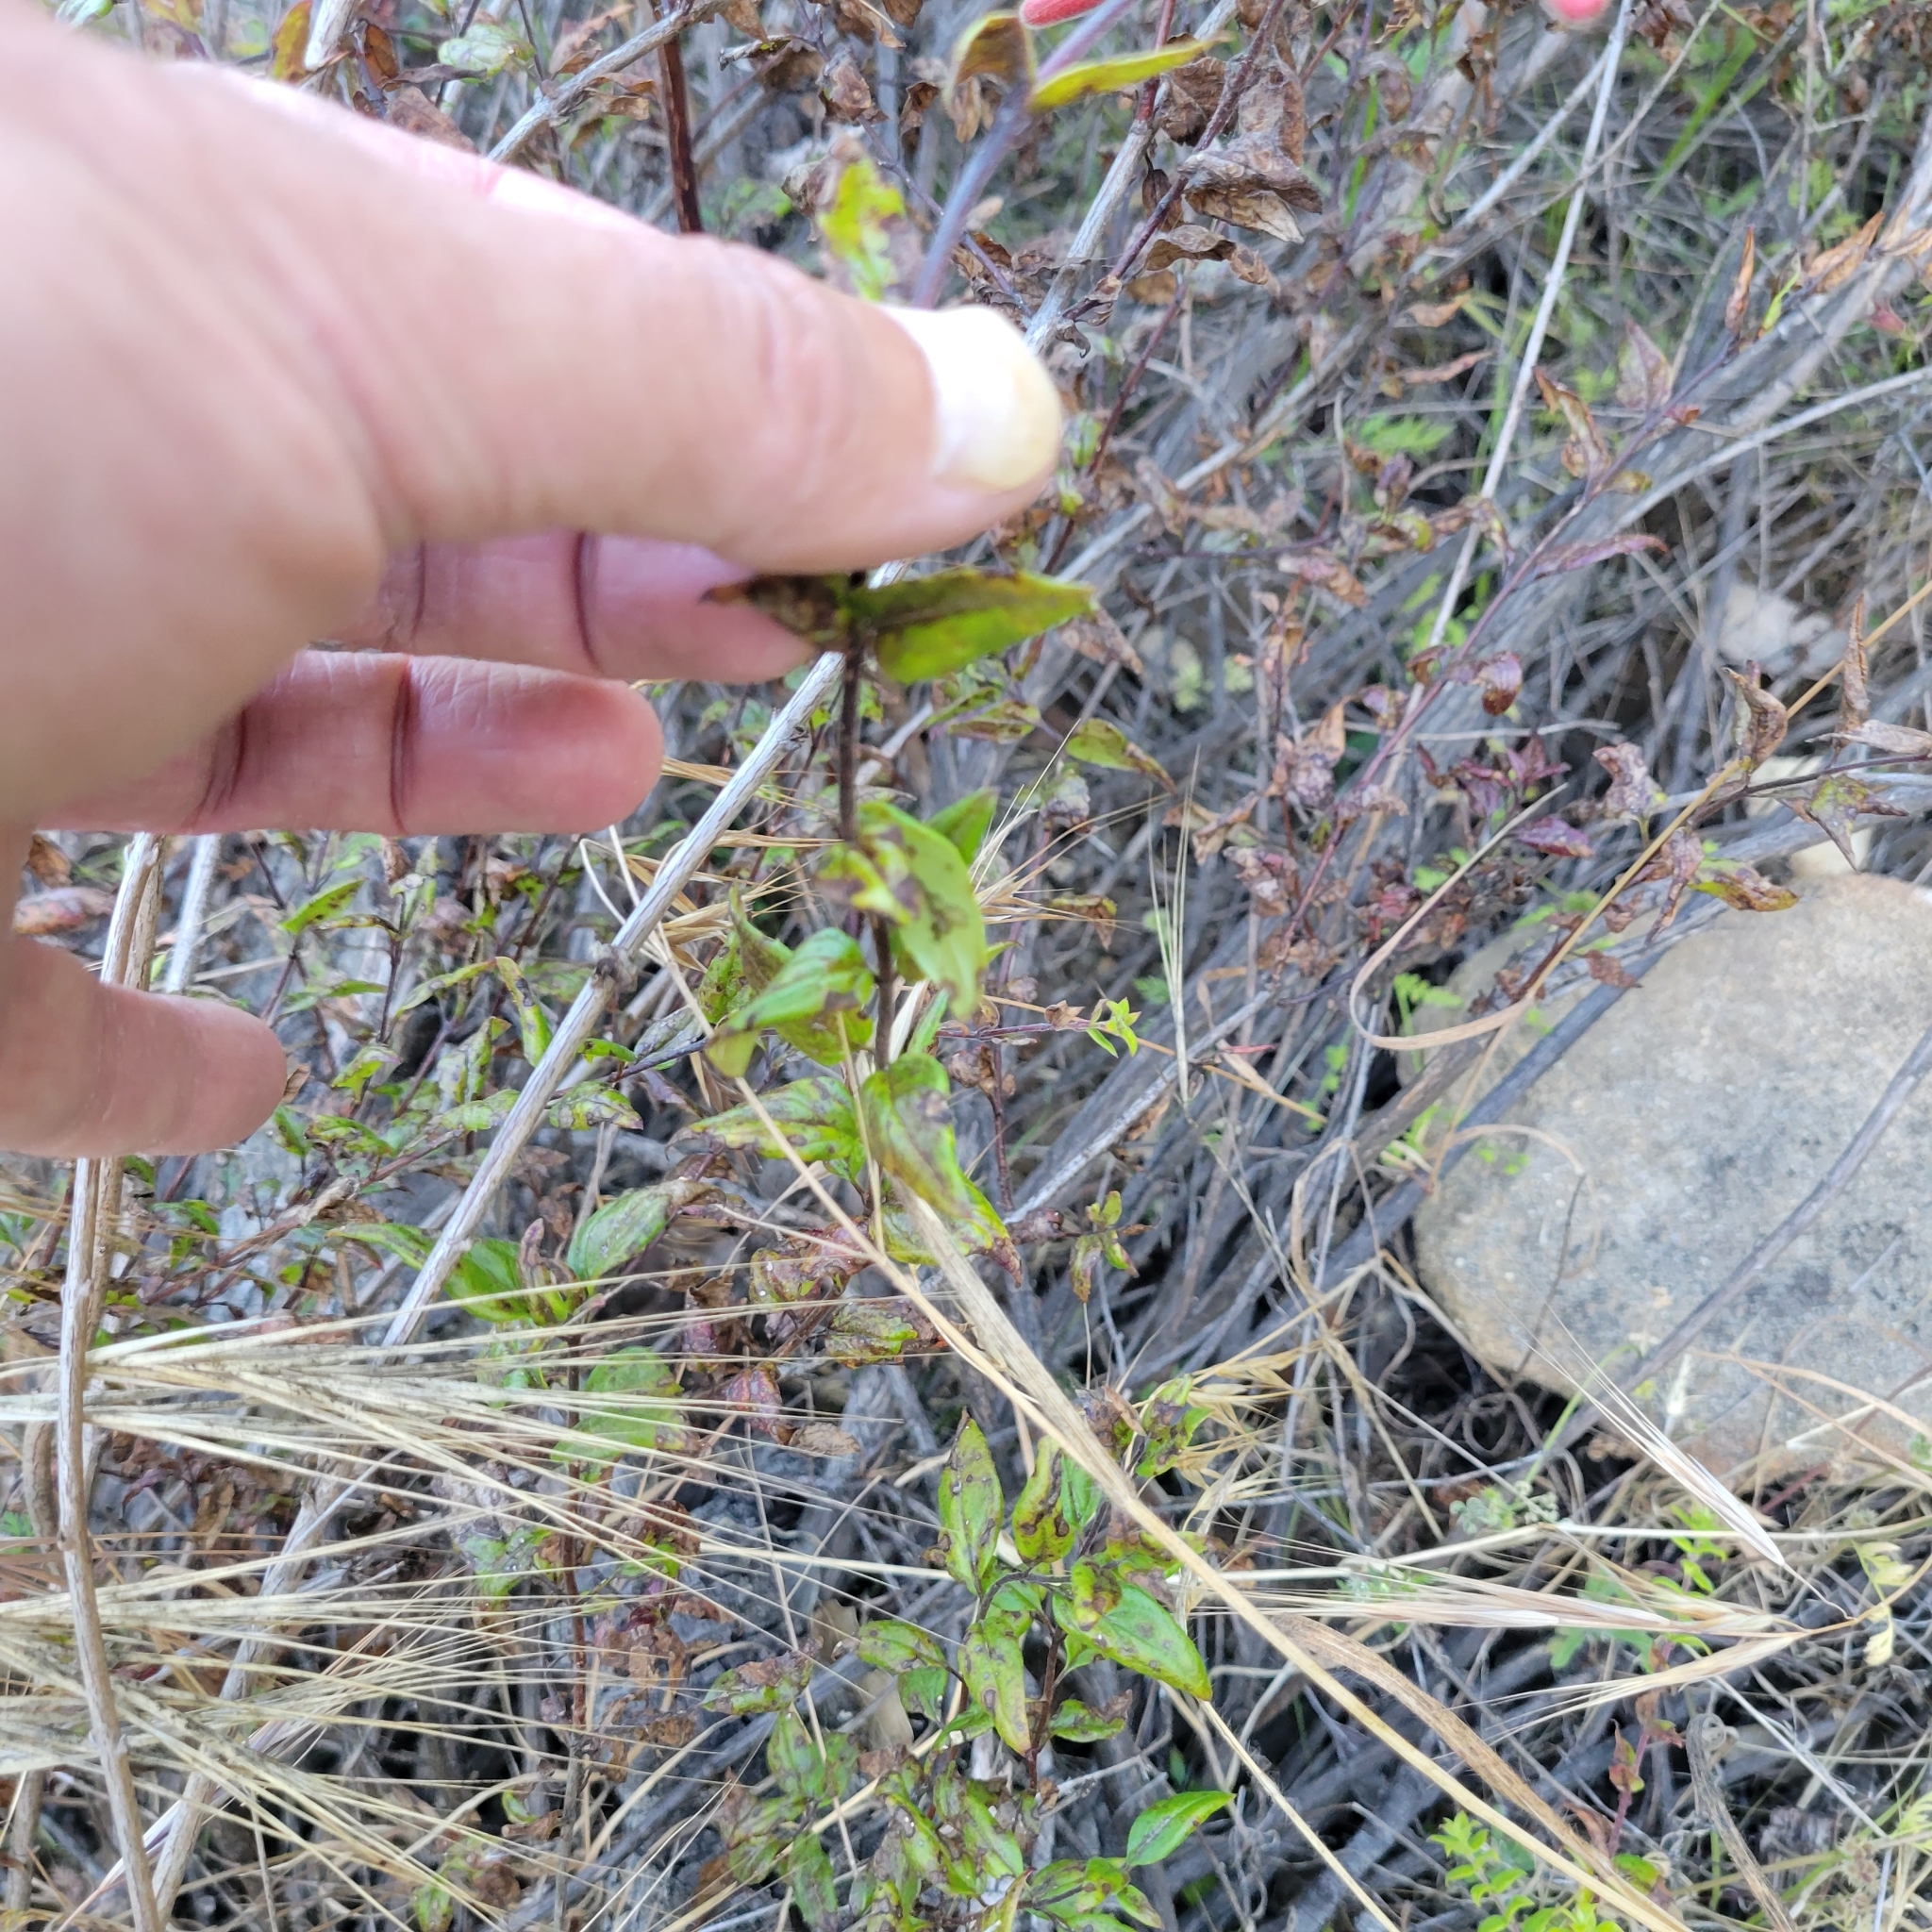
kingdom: Plantae
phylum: Tracheophyta
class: Magnoliopsida
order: Lamiales
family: Plantaginaceae
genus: Keckiella
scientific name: Keckiella cordifolia
